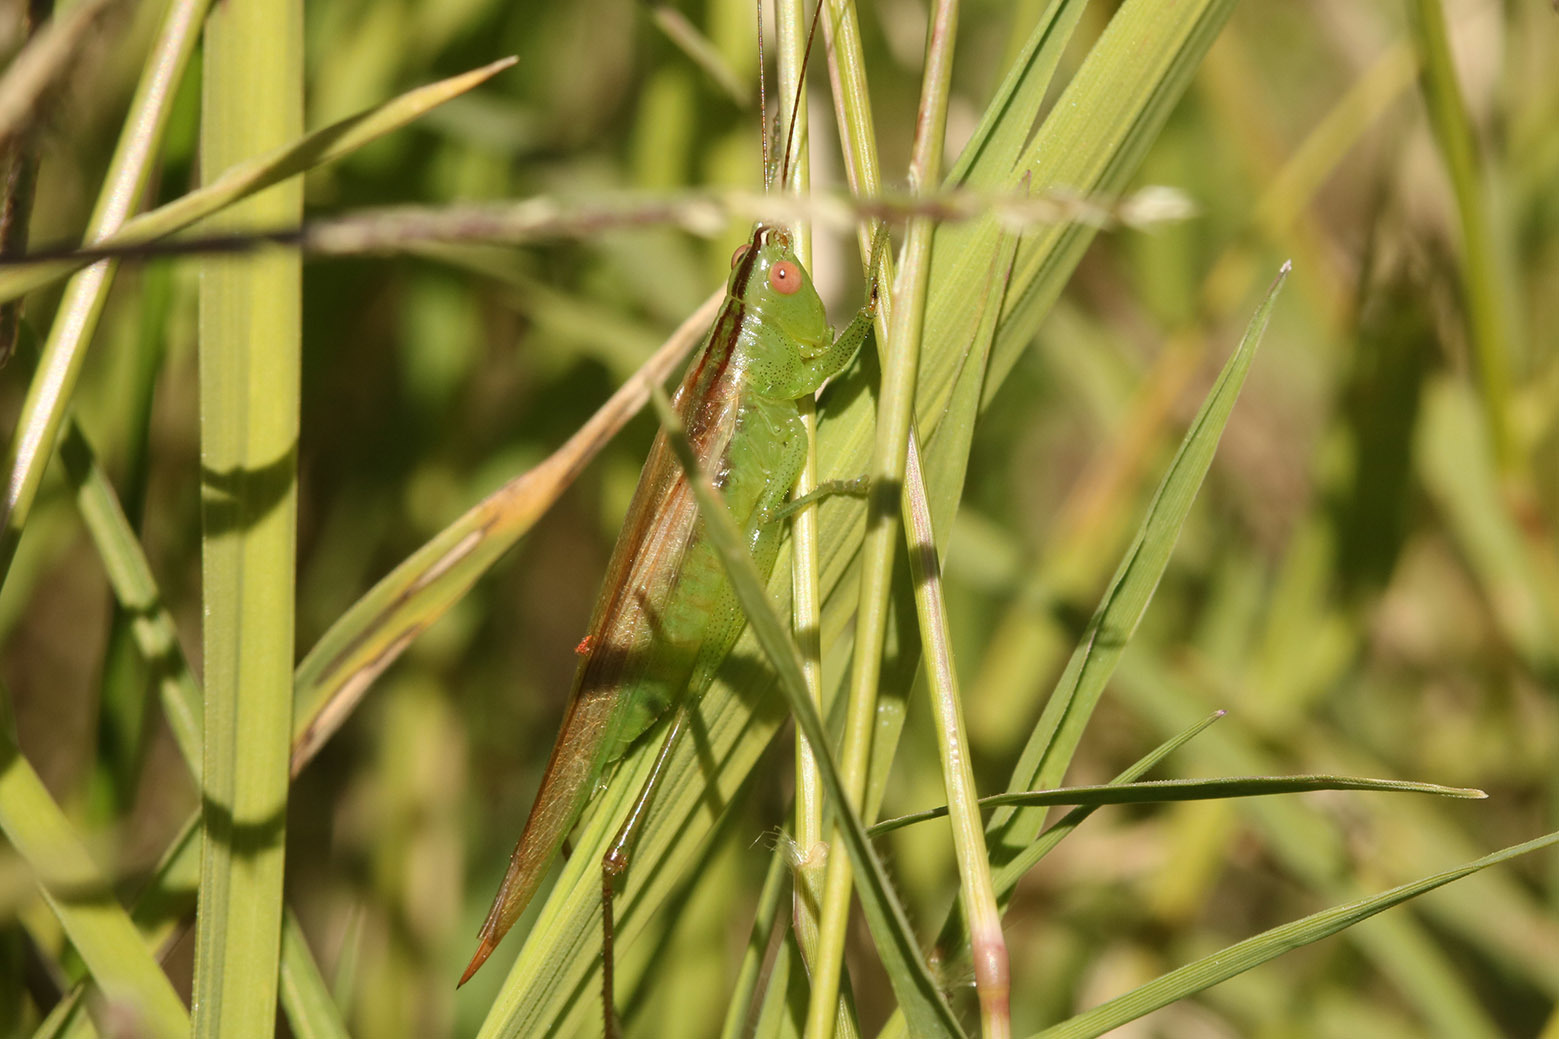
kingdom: Animalia
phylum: Arthropoda
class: Insecta
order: Orthoptera
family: Tettigoniidae
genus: Conocephalus
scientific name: Conocephalus longipes
